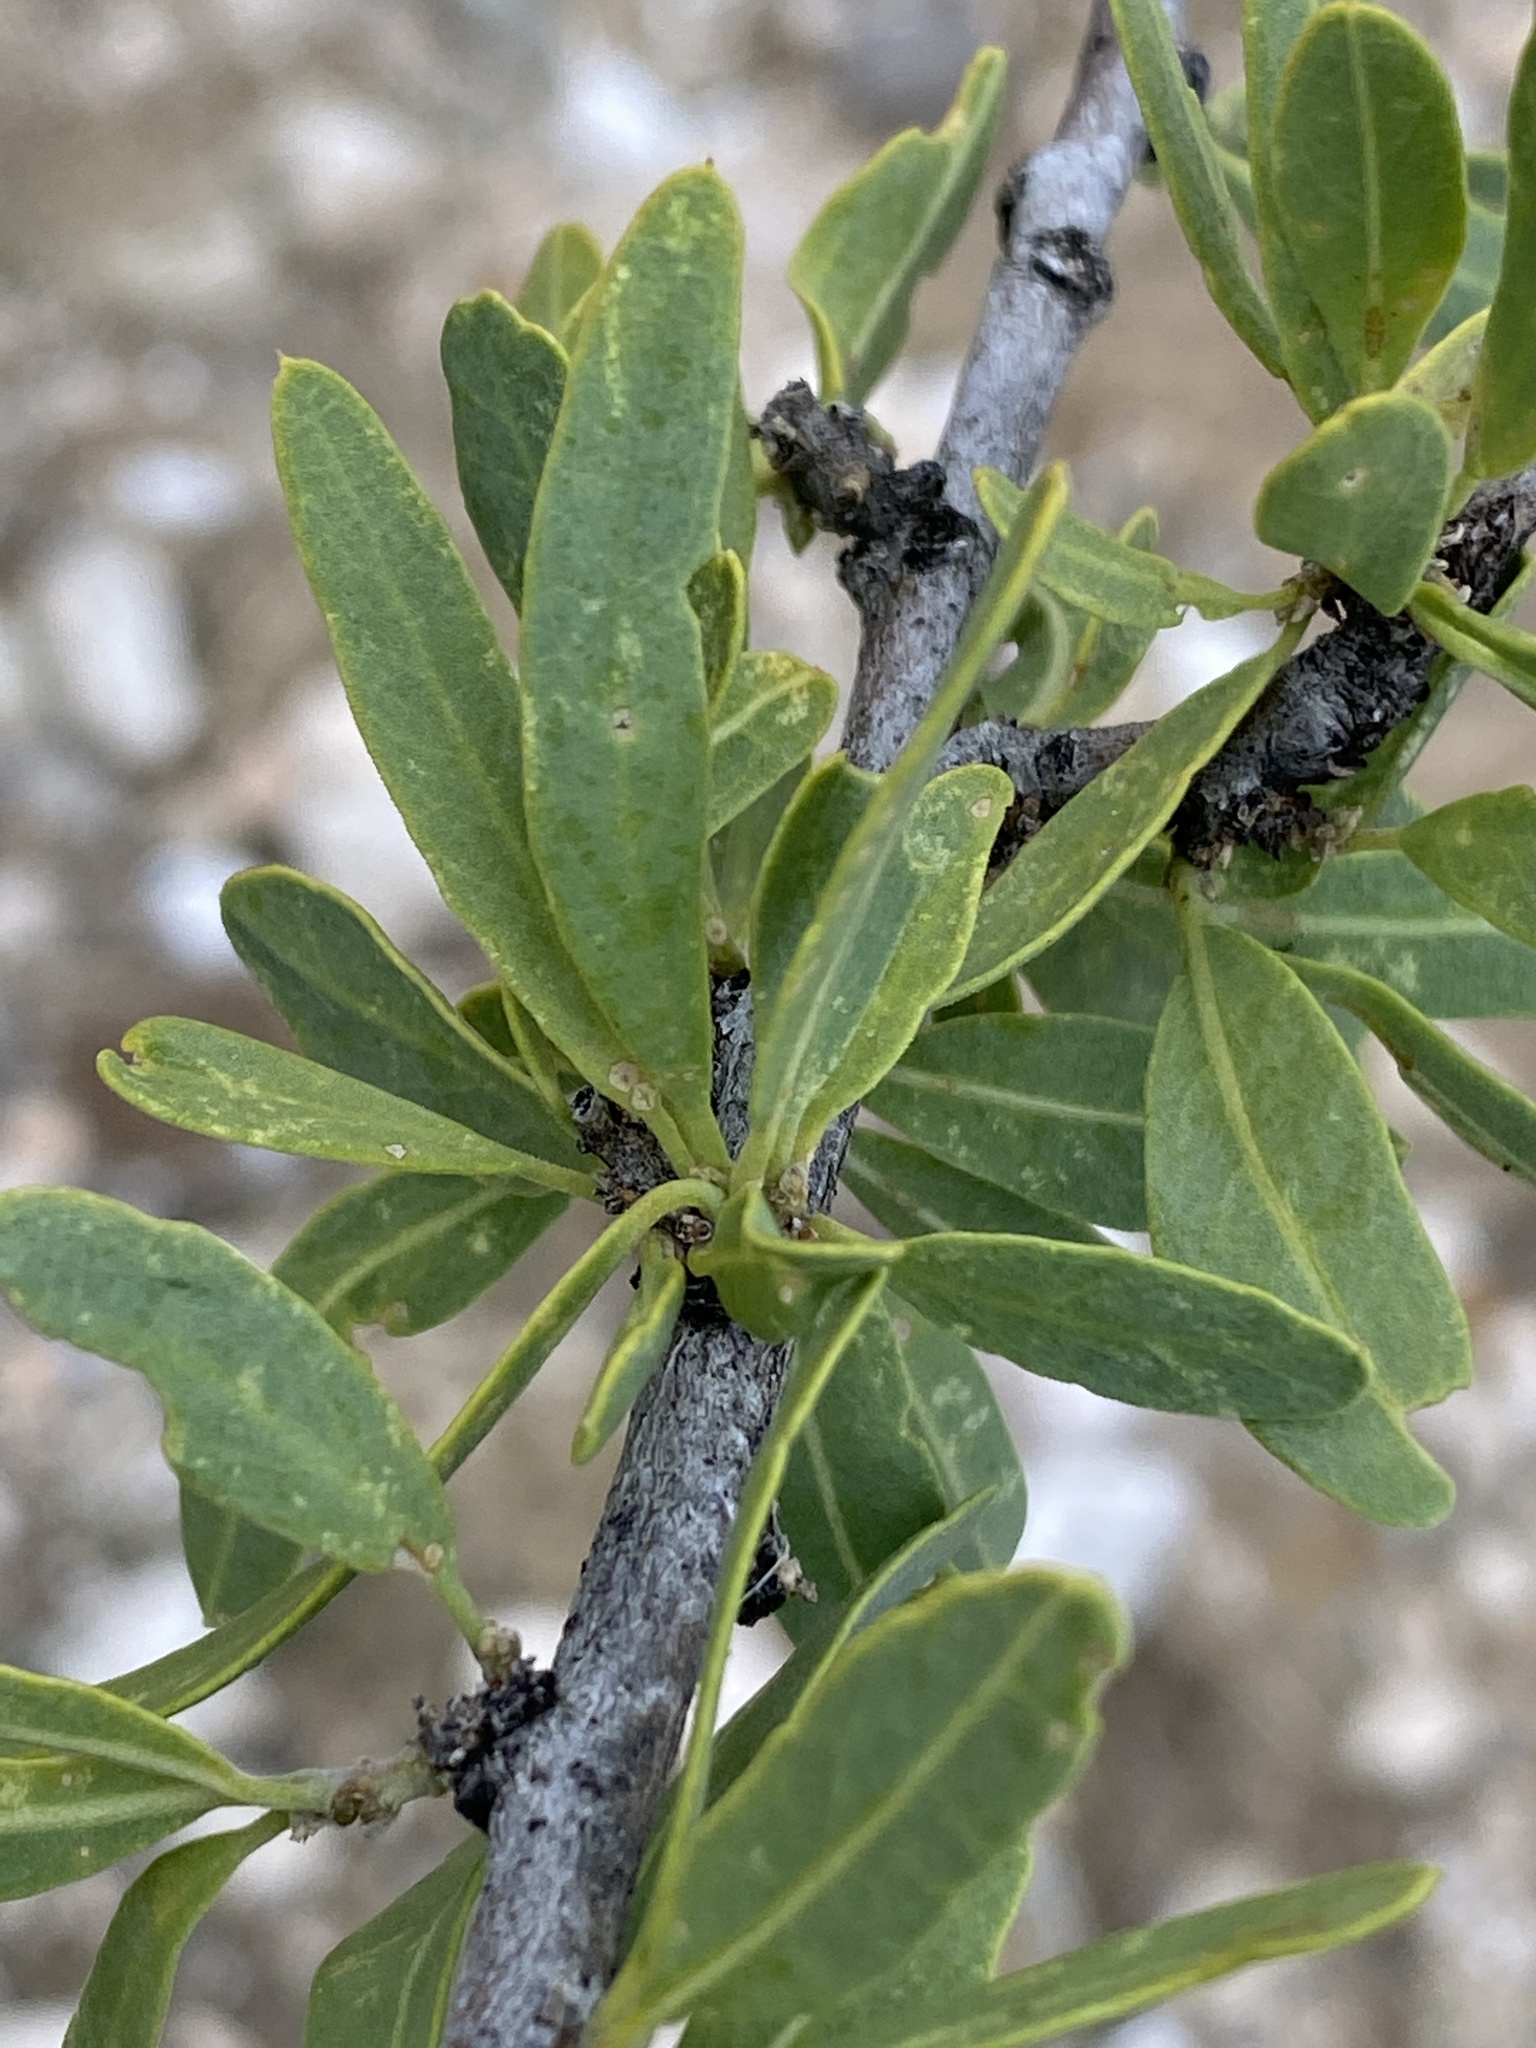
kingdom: Plantae
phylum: Tracheophyta
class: Magnoliopsida
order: Brassicales
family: Capparaceae
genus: Boscia
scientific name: Boscia albitrunca
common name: Caper bush
